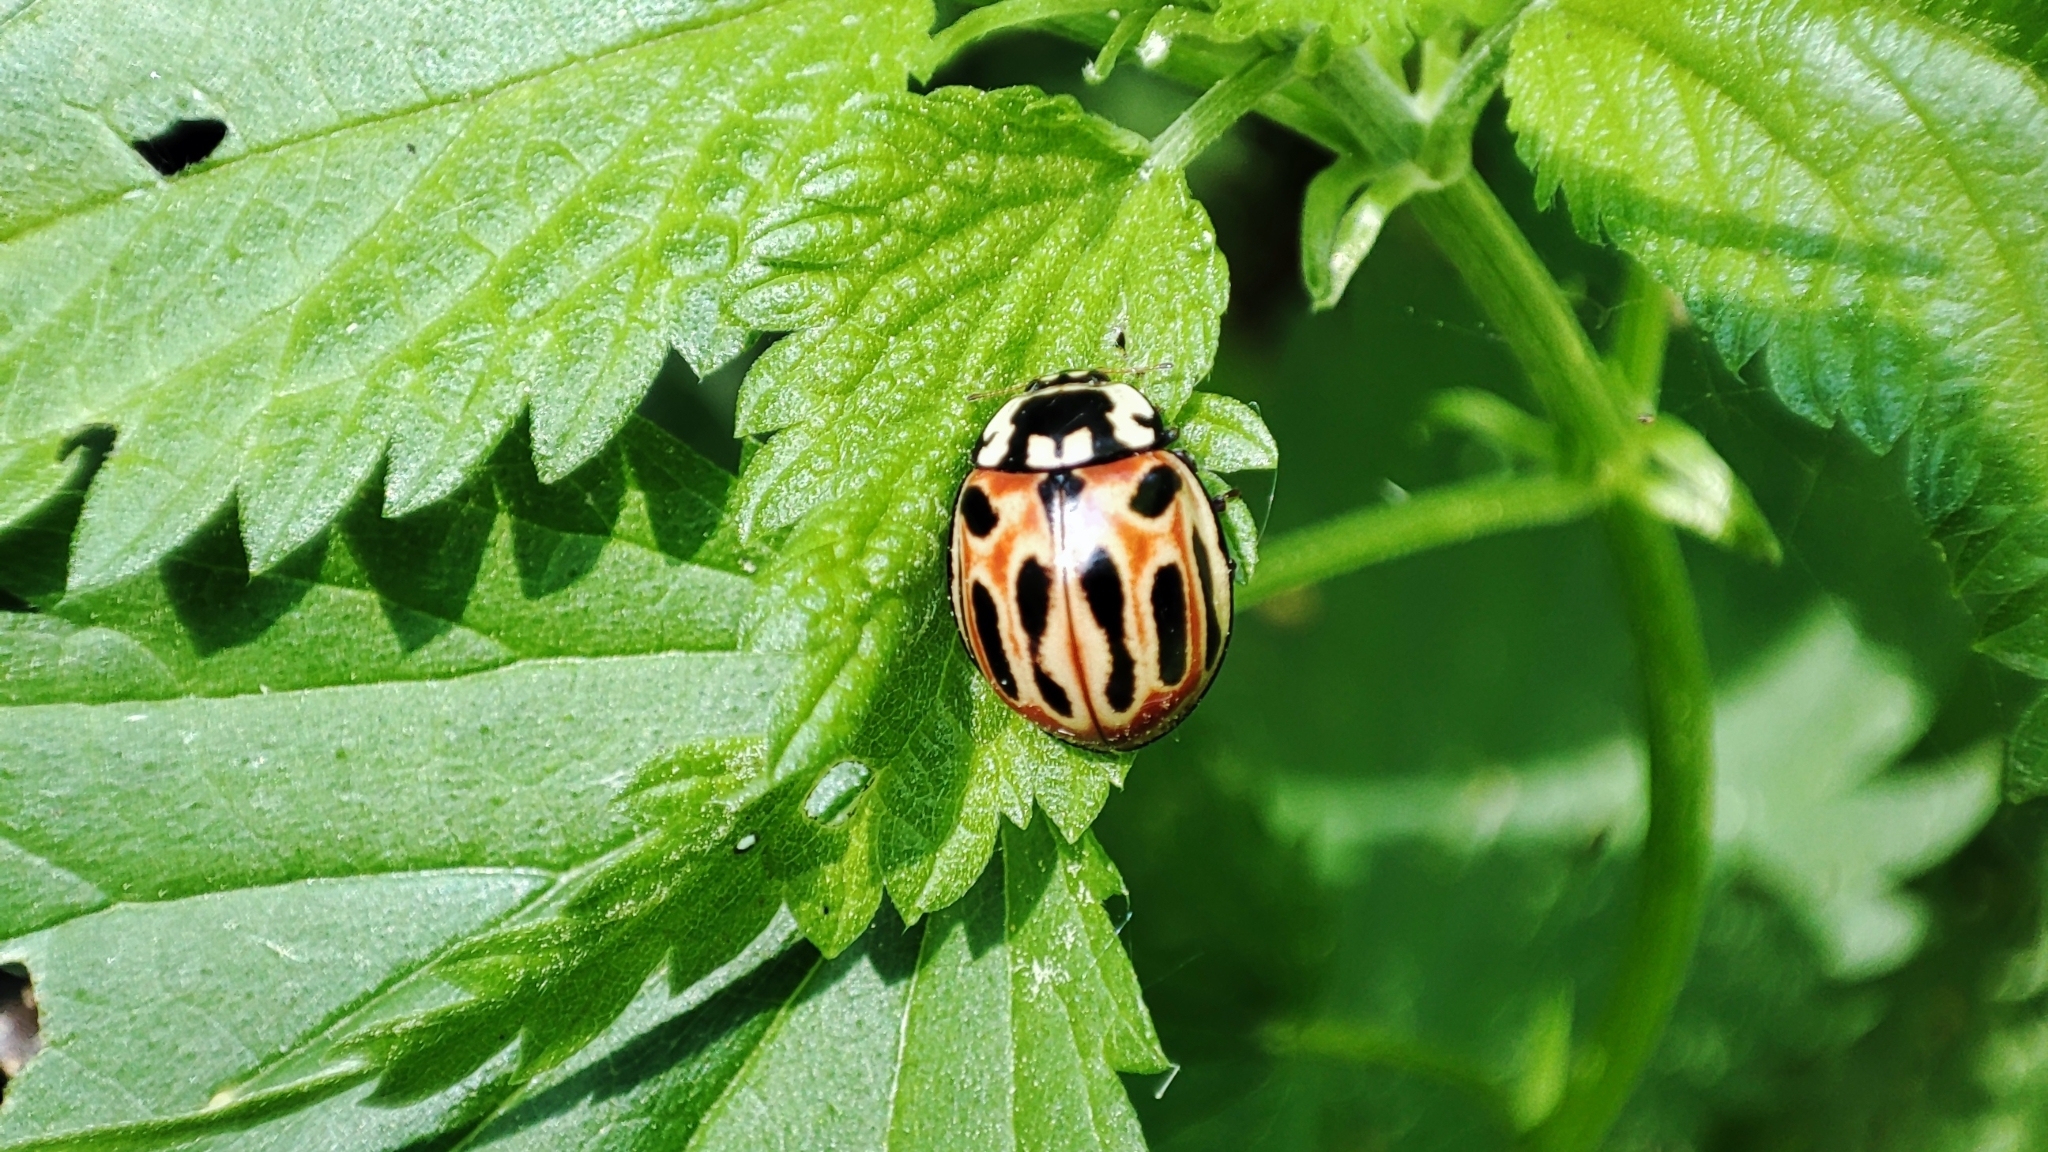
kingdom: Animalia
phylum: Arthropoda
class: Insecta
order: Coleoptera
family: Coccinellidae
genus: Anatis
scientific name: Anatis ocellata
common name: Eyed ladybird
